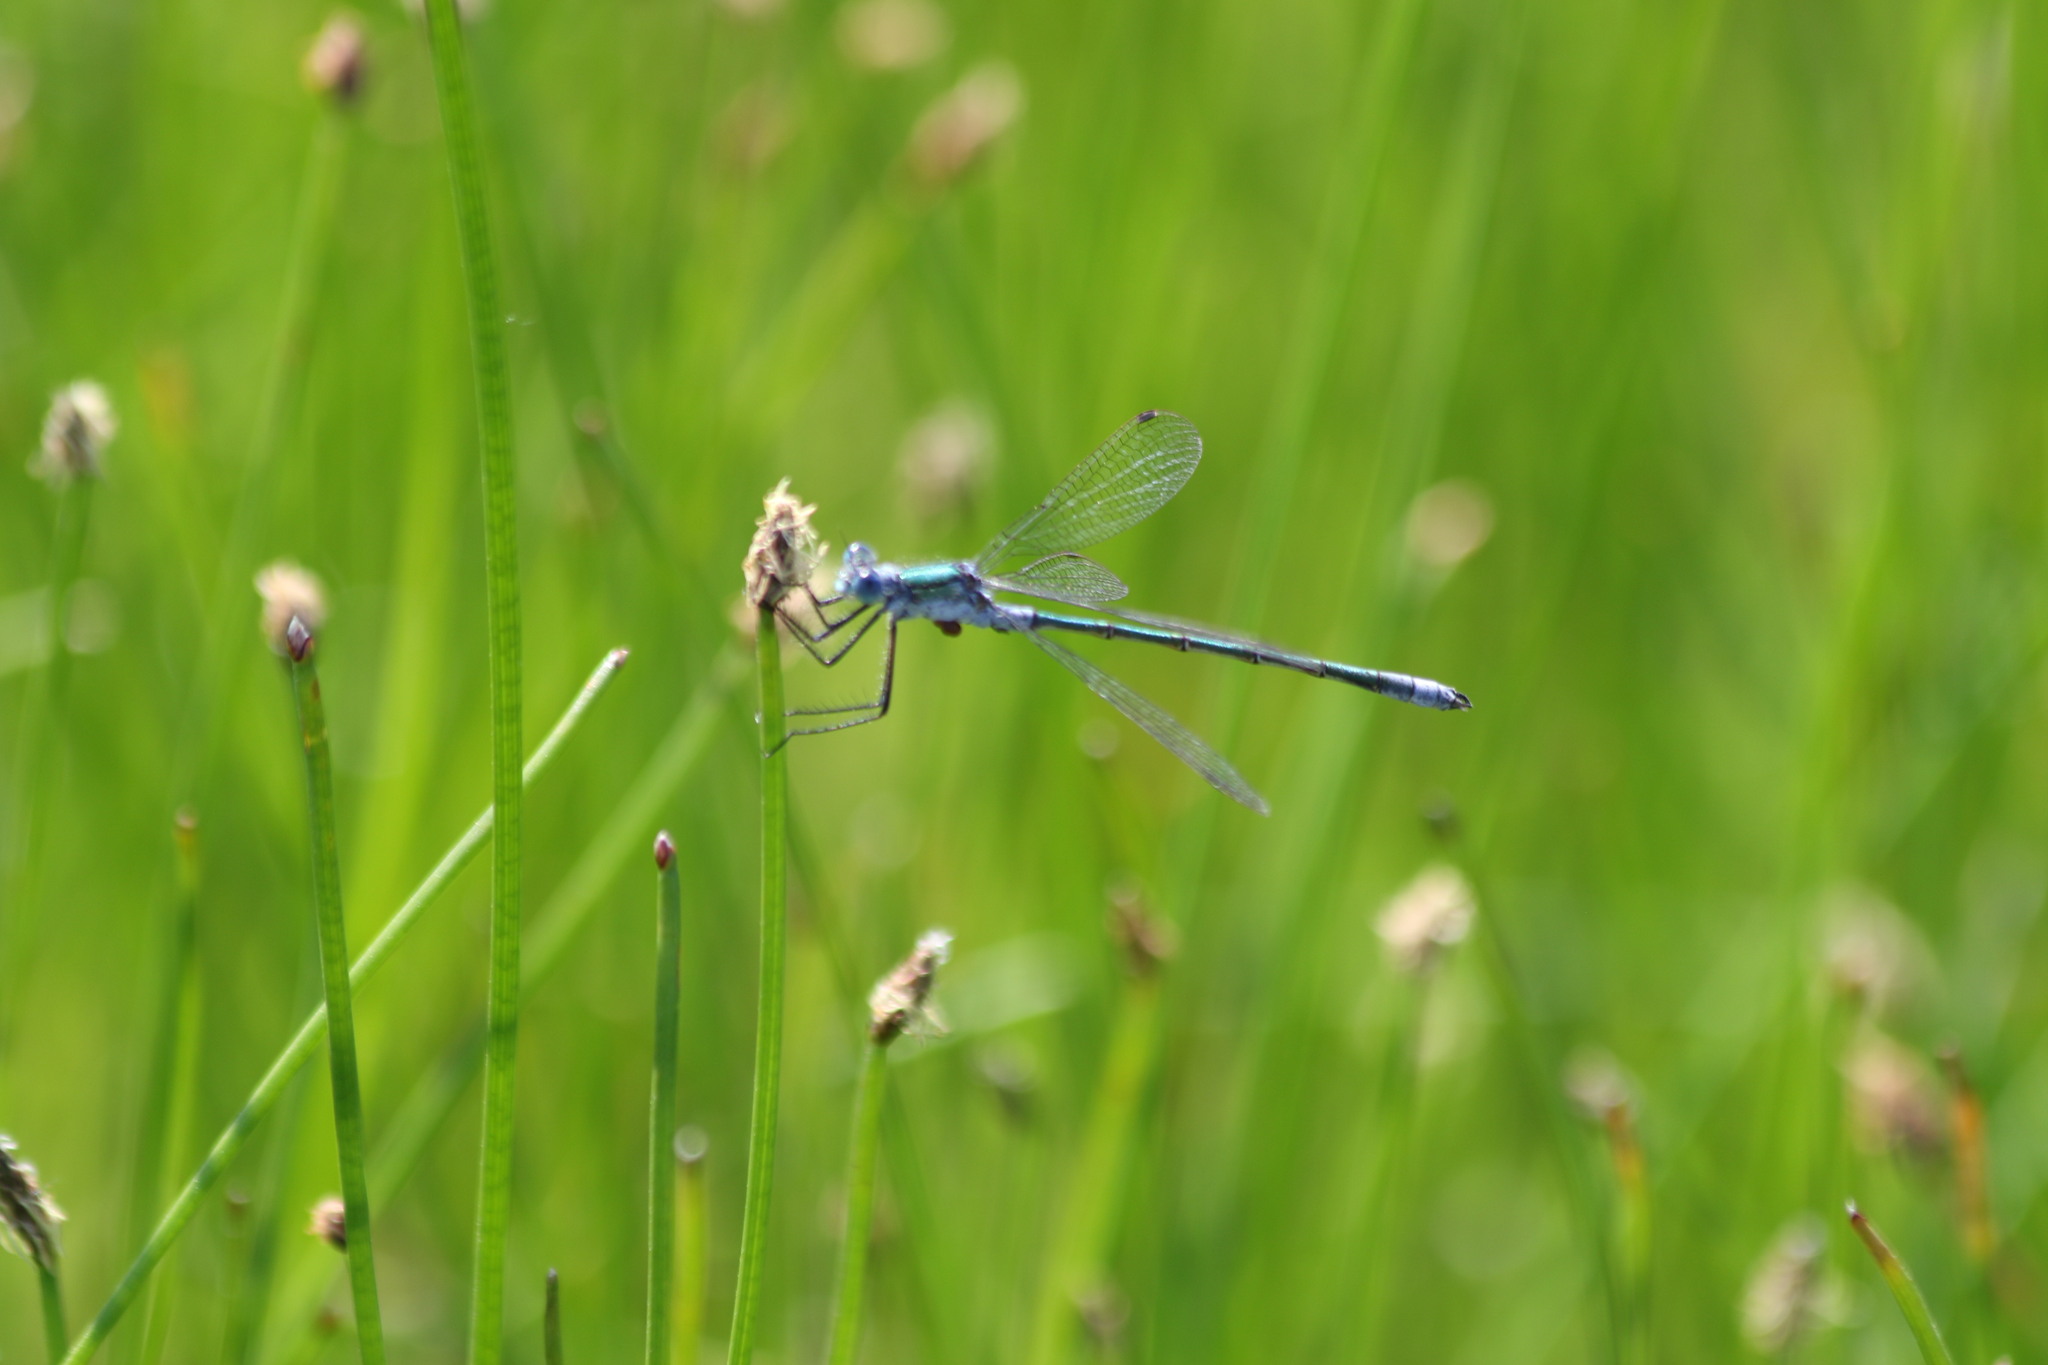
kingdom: Animalia
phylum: Arthropoda
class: Insecta
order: Odonata
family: Lestidae
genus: Lestes
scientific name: Lestes sponsa
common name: Common spreadwing
